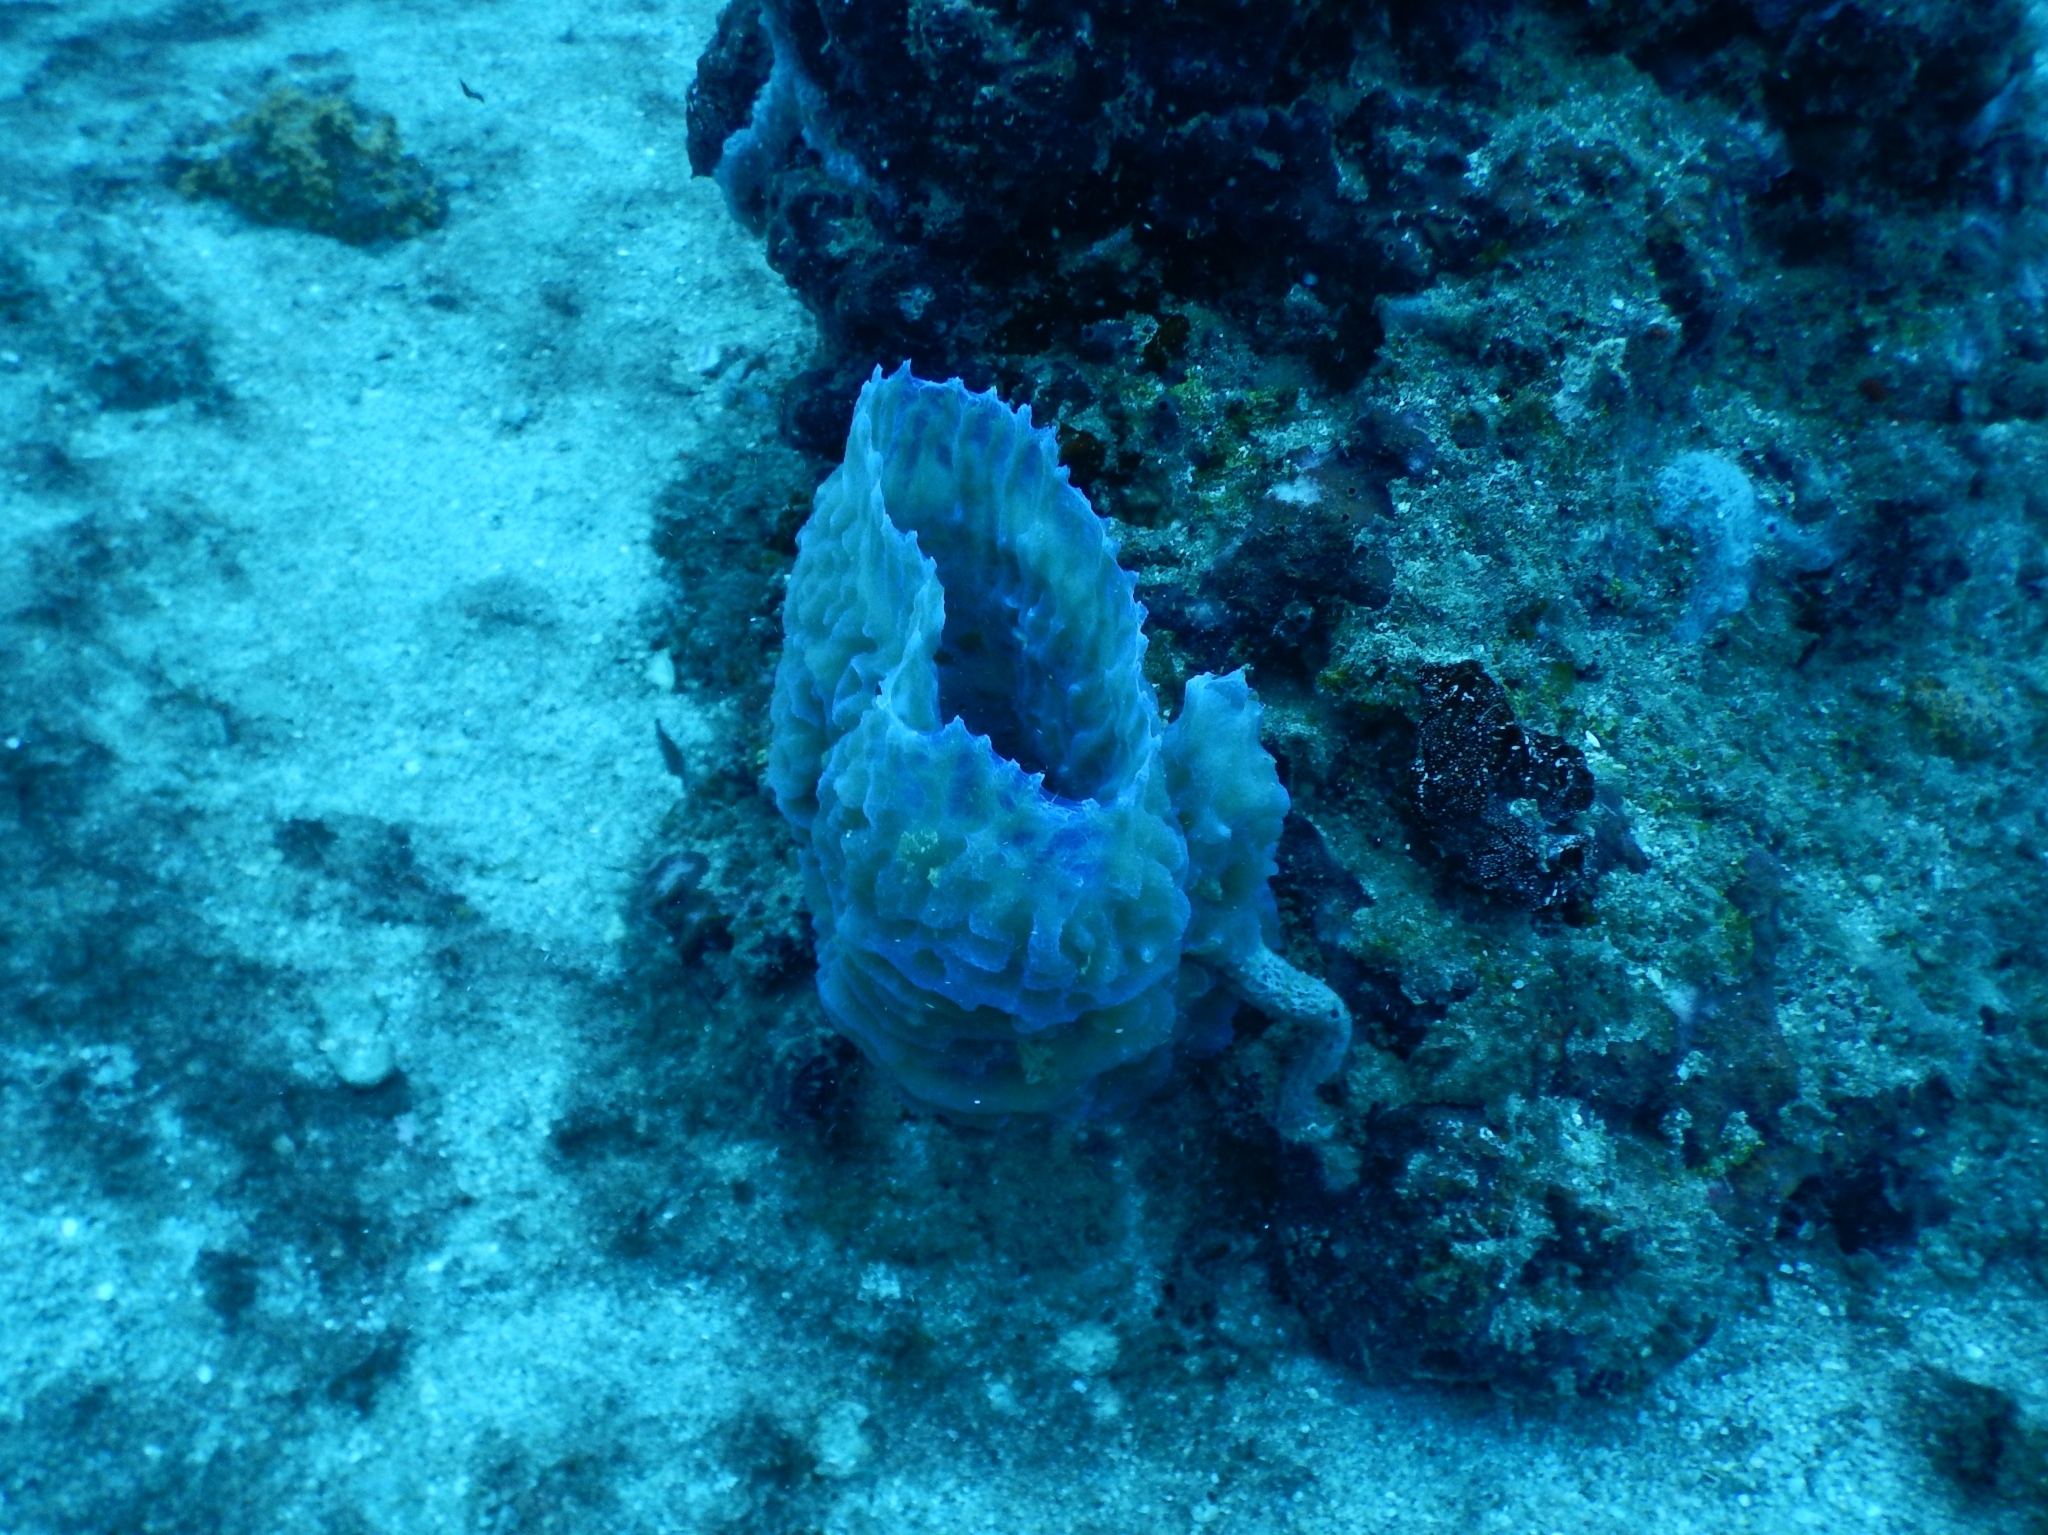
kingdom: Animalia
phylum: Porifera
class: Demospongiae
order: Haplosclerida
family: Callyspongiidae
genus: Callyspongia
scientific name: Callyspongia plicifera
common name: Azure vase sponge
